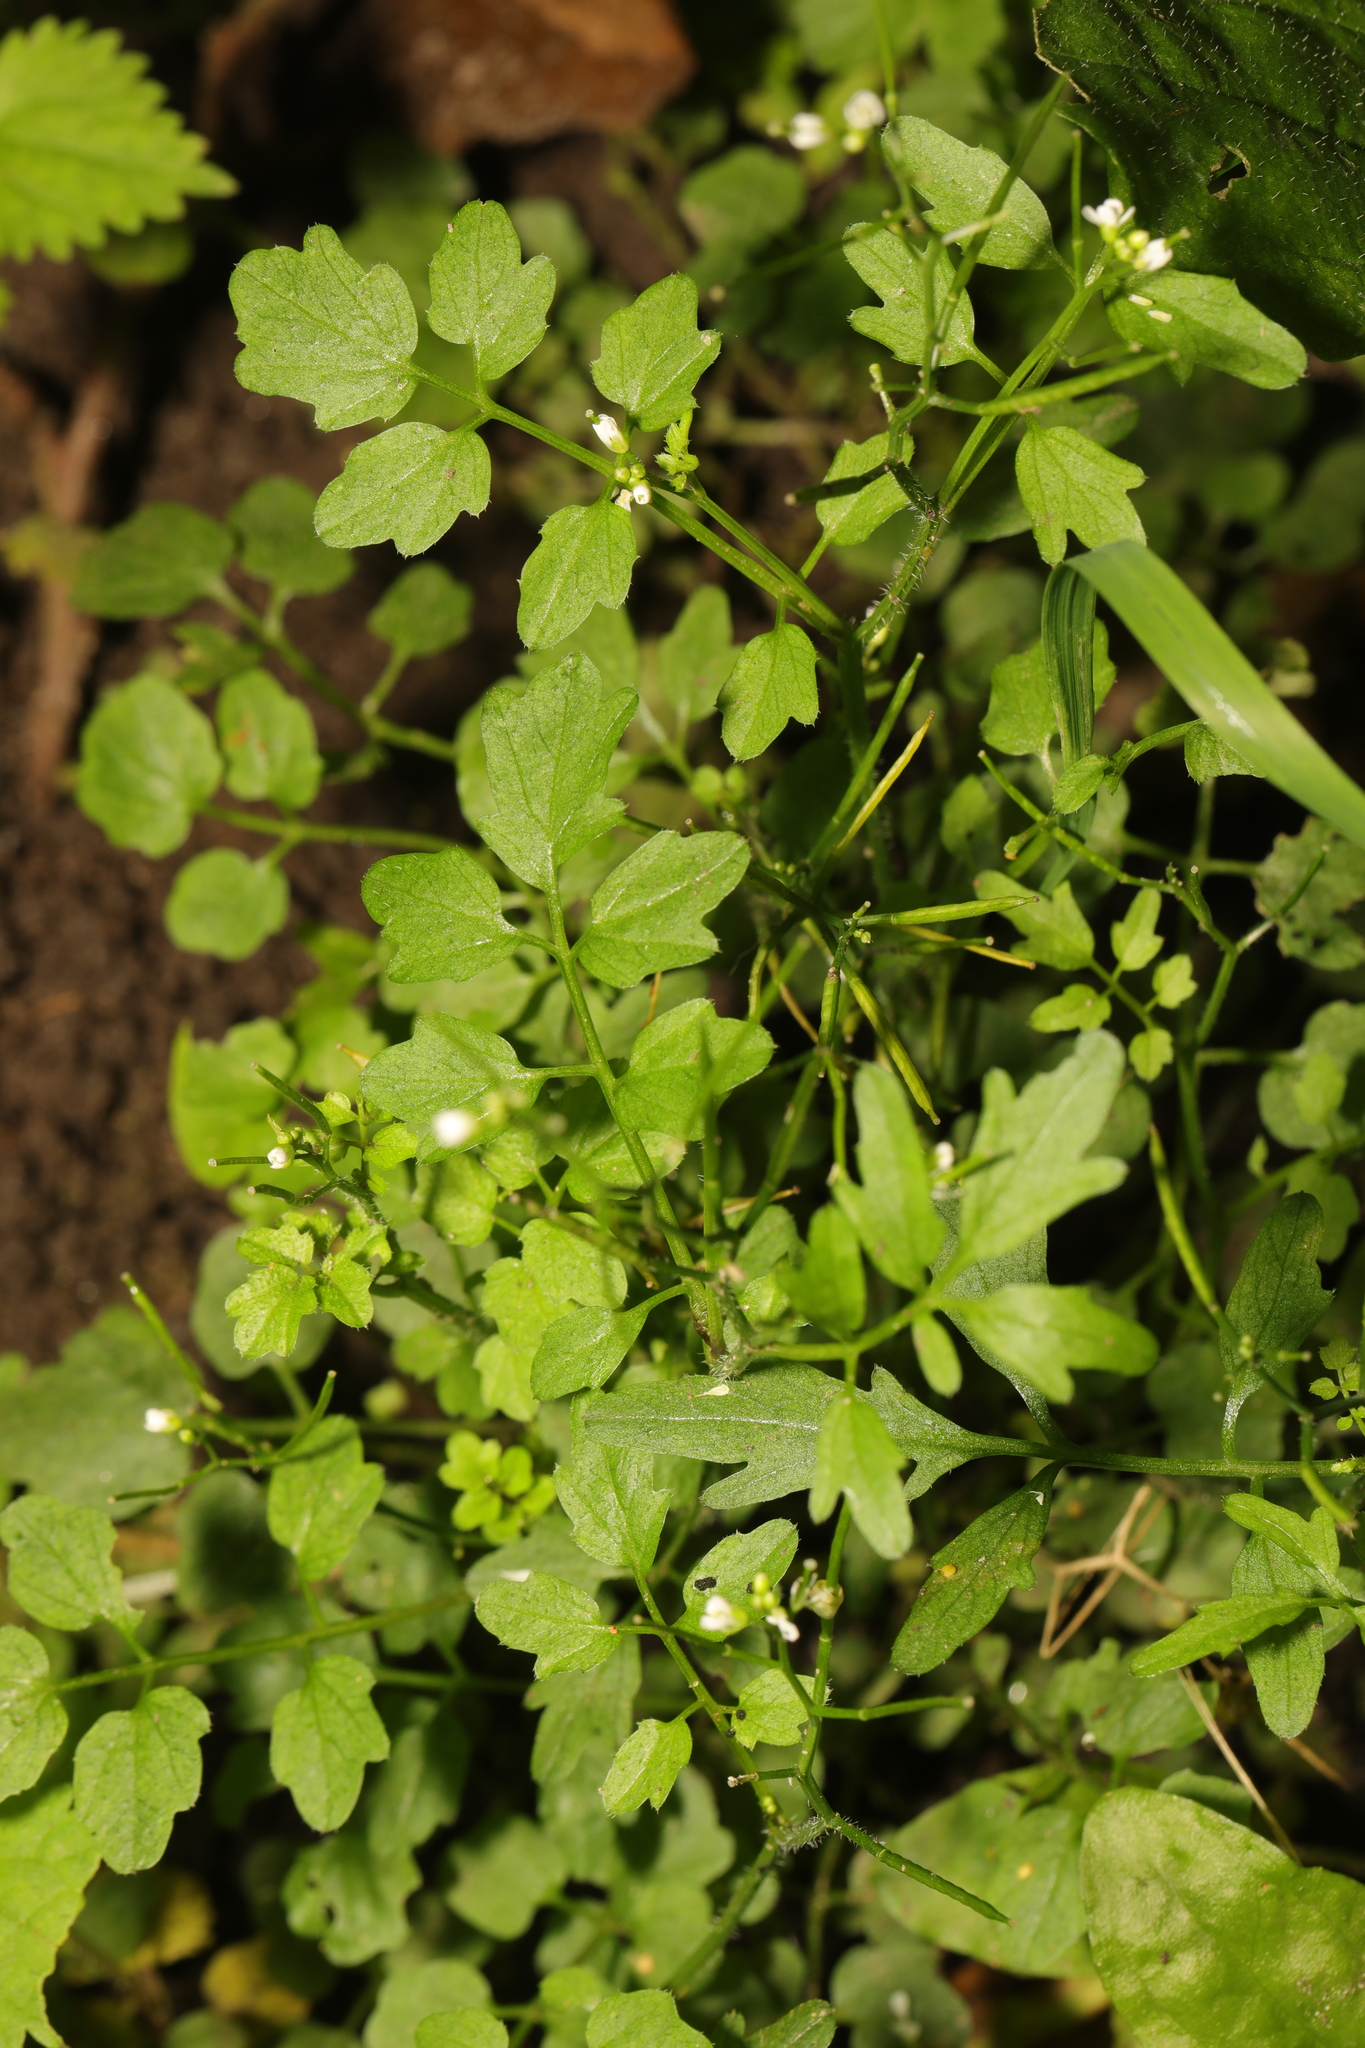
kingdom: Plantae
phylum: Tracheophyta
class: Magnoliopsida
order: Brassicales
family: Brassicaceae
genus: Cardamine
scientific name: Cardamine flexuosa
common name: Woodland bittercress
